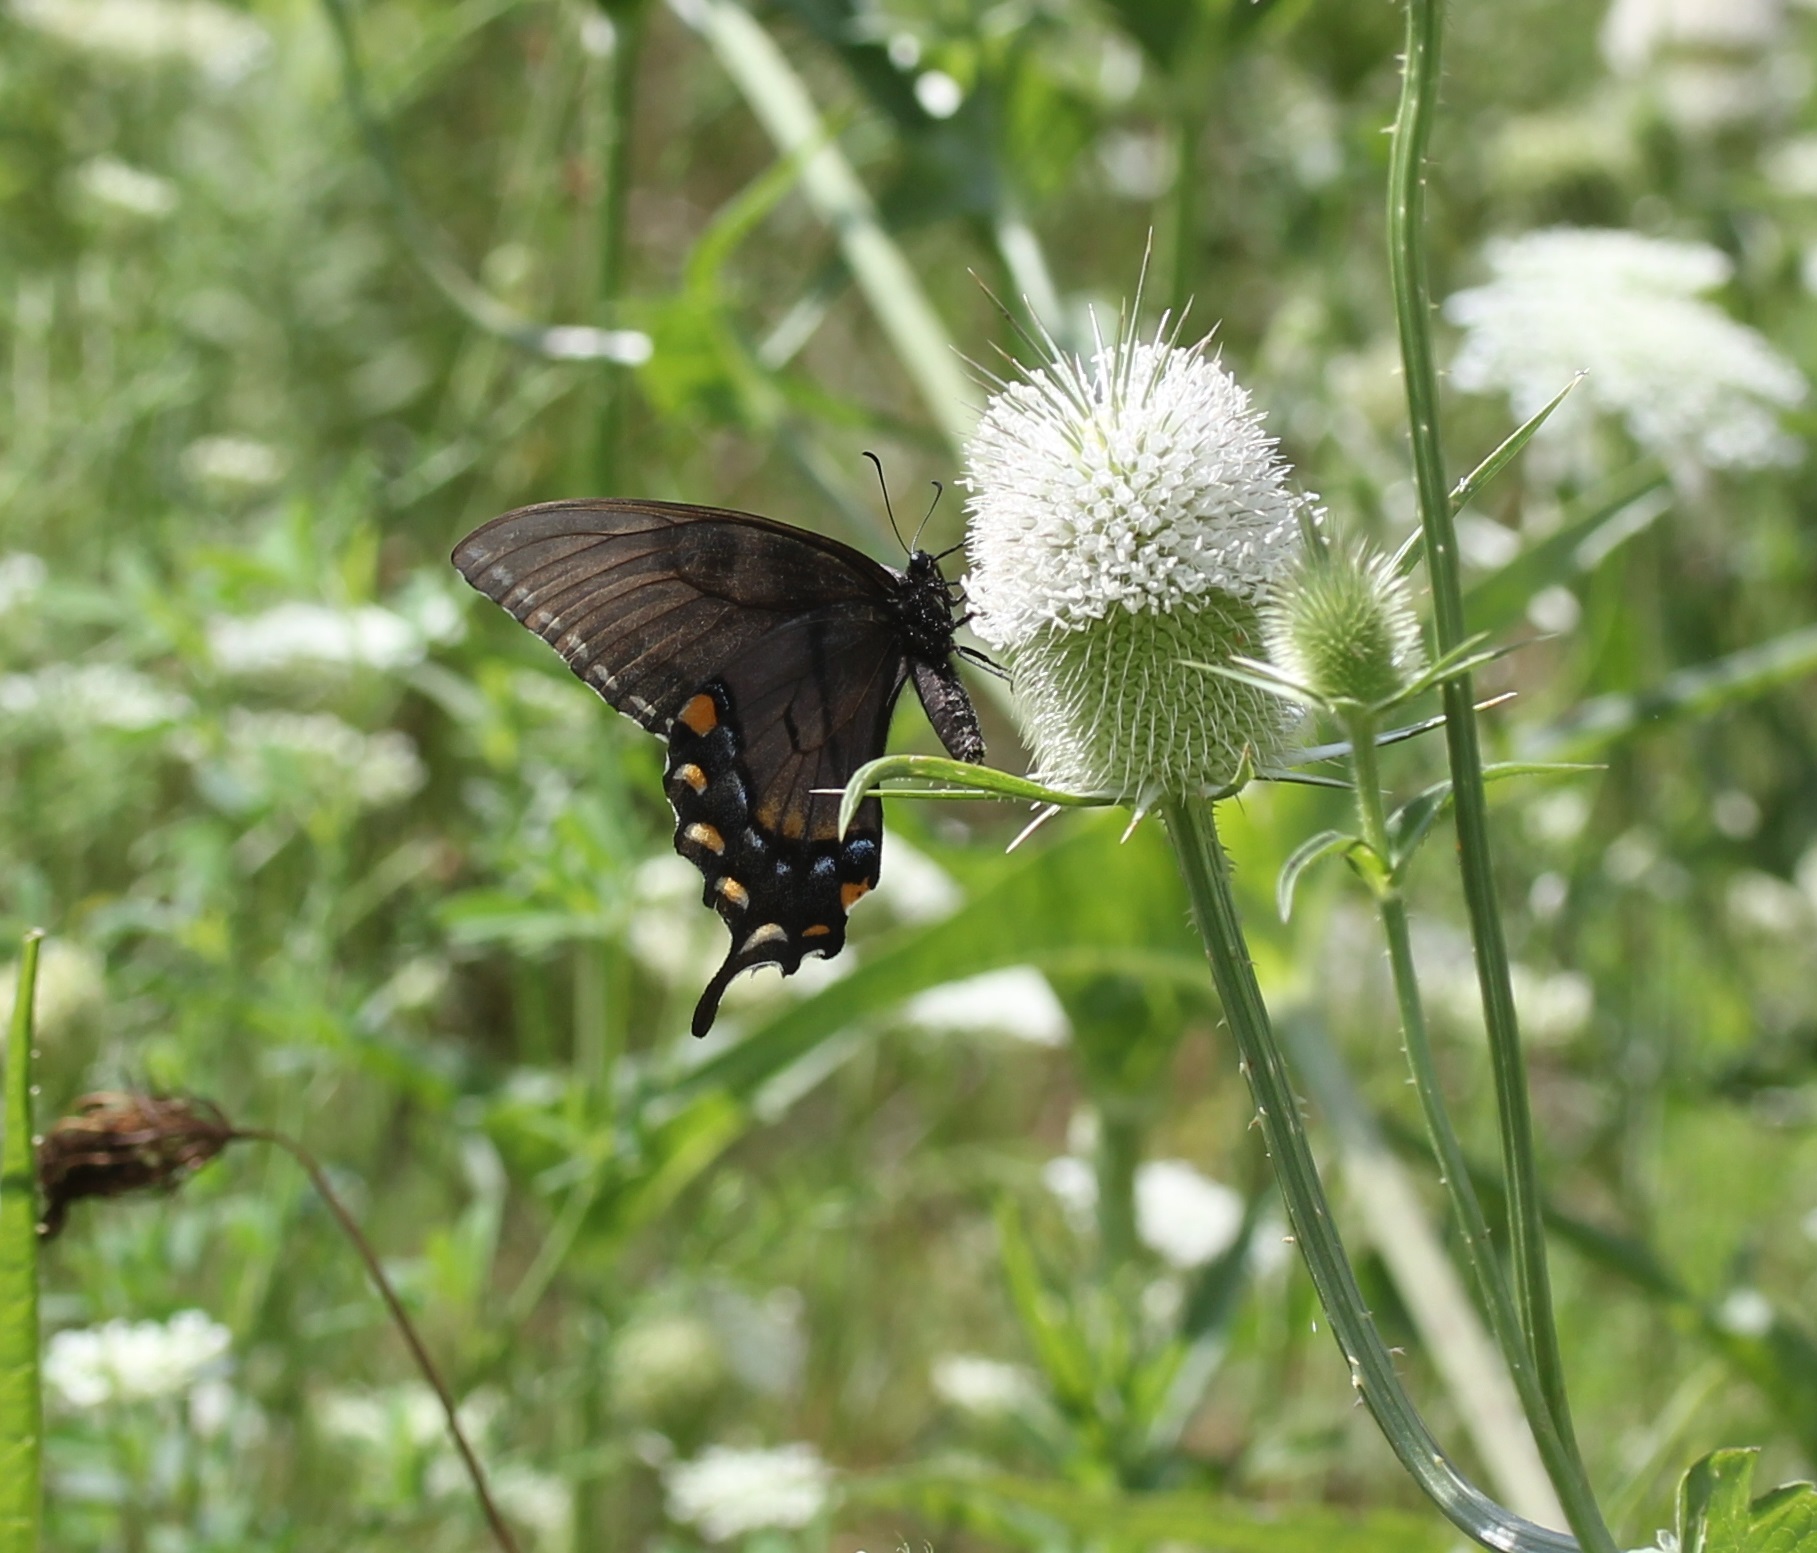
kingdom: Animalia
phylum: Arthropoda
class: Insecta
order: Lepidoptera
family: Papilionidae
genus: Papilio
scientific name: Papilio glaucus
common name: Tiger swallowtail
